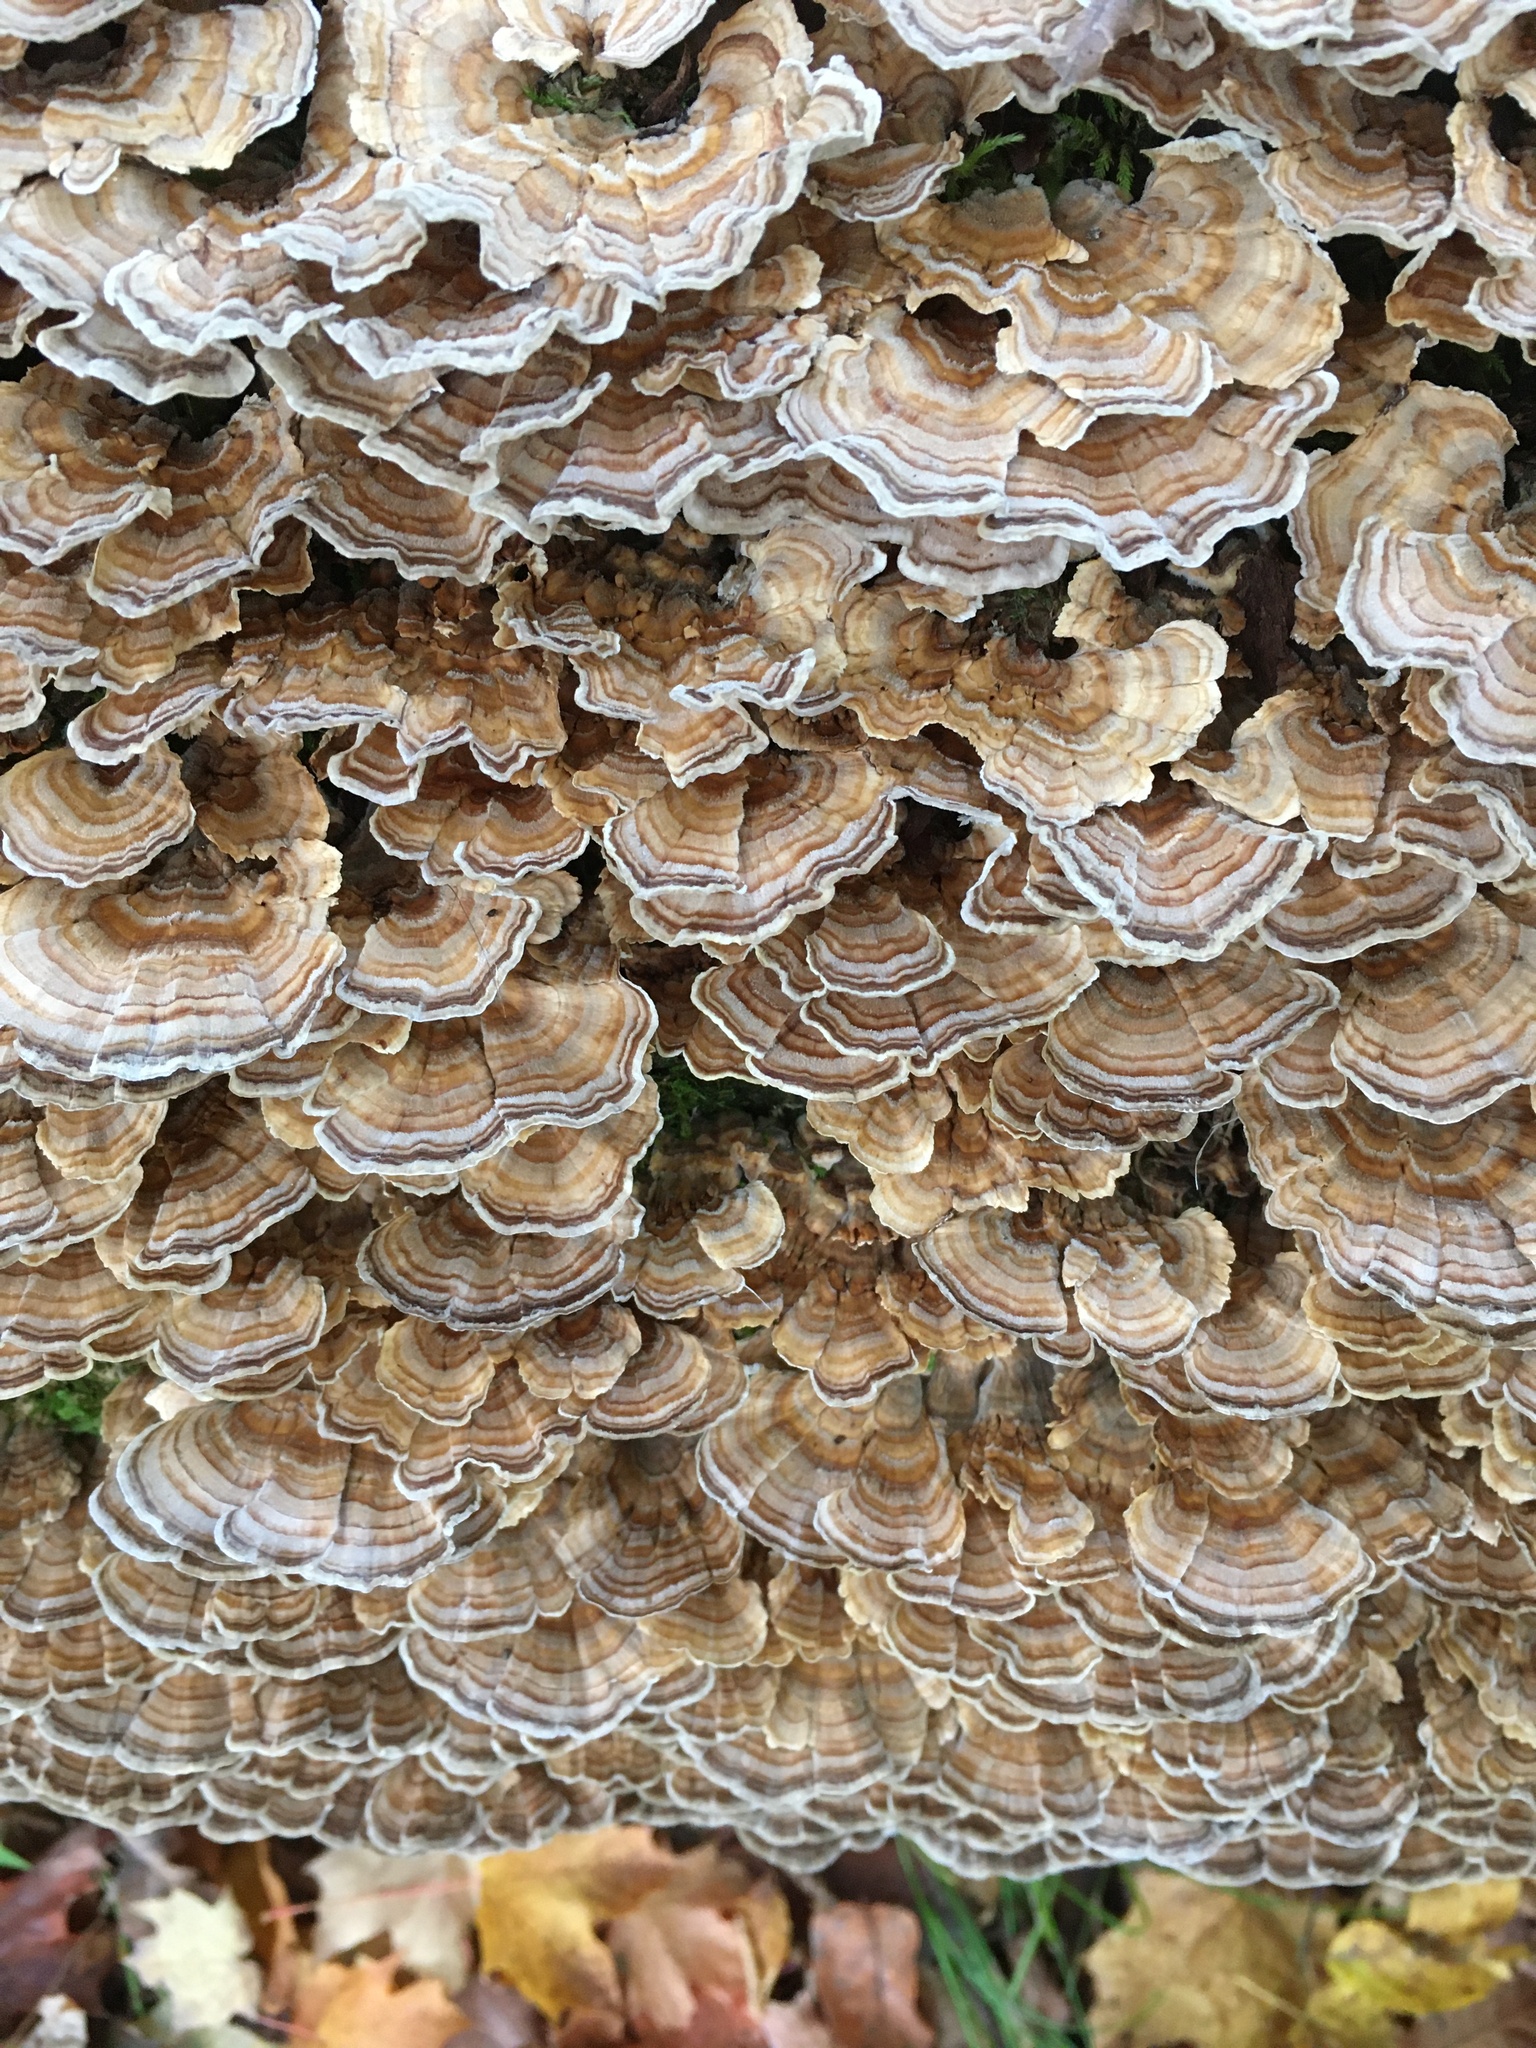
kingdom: Fungi
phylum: Basidiomycota
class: Agaricomycetes
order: Polyporales
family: Polyporaceae
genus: Trametes
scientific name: Trametes versicolor
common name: Turkeytail
